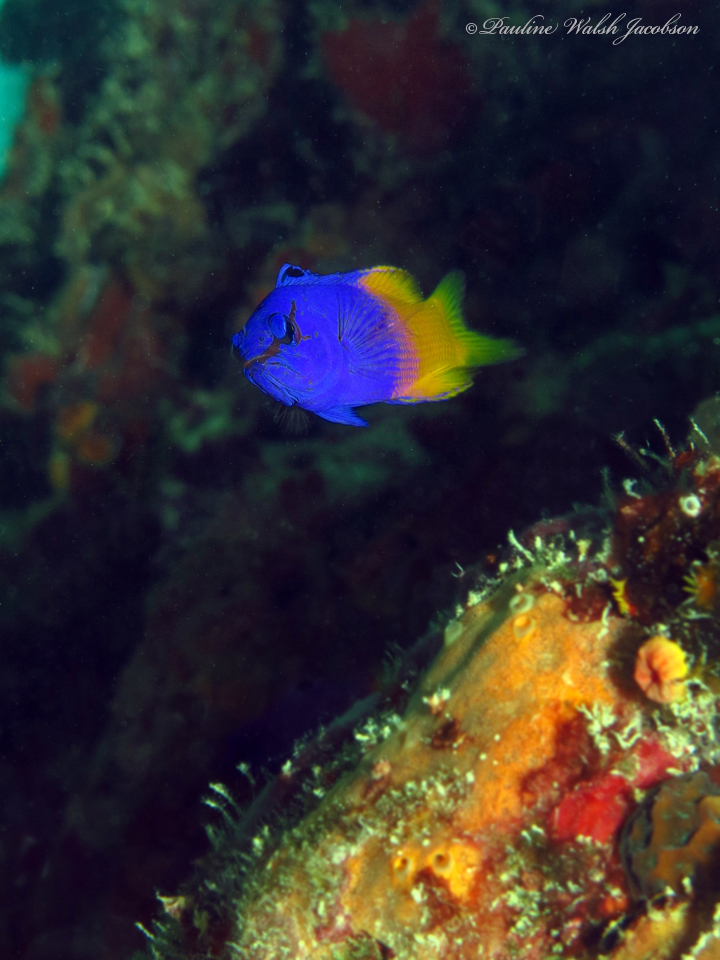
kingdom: Animalia
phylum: Chordata
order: Perciformes
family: Grammatidae
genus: Gramma
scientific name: Gramma loreto
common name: Fairy basslet
